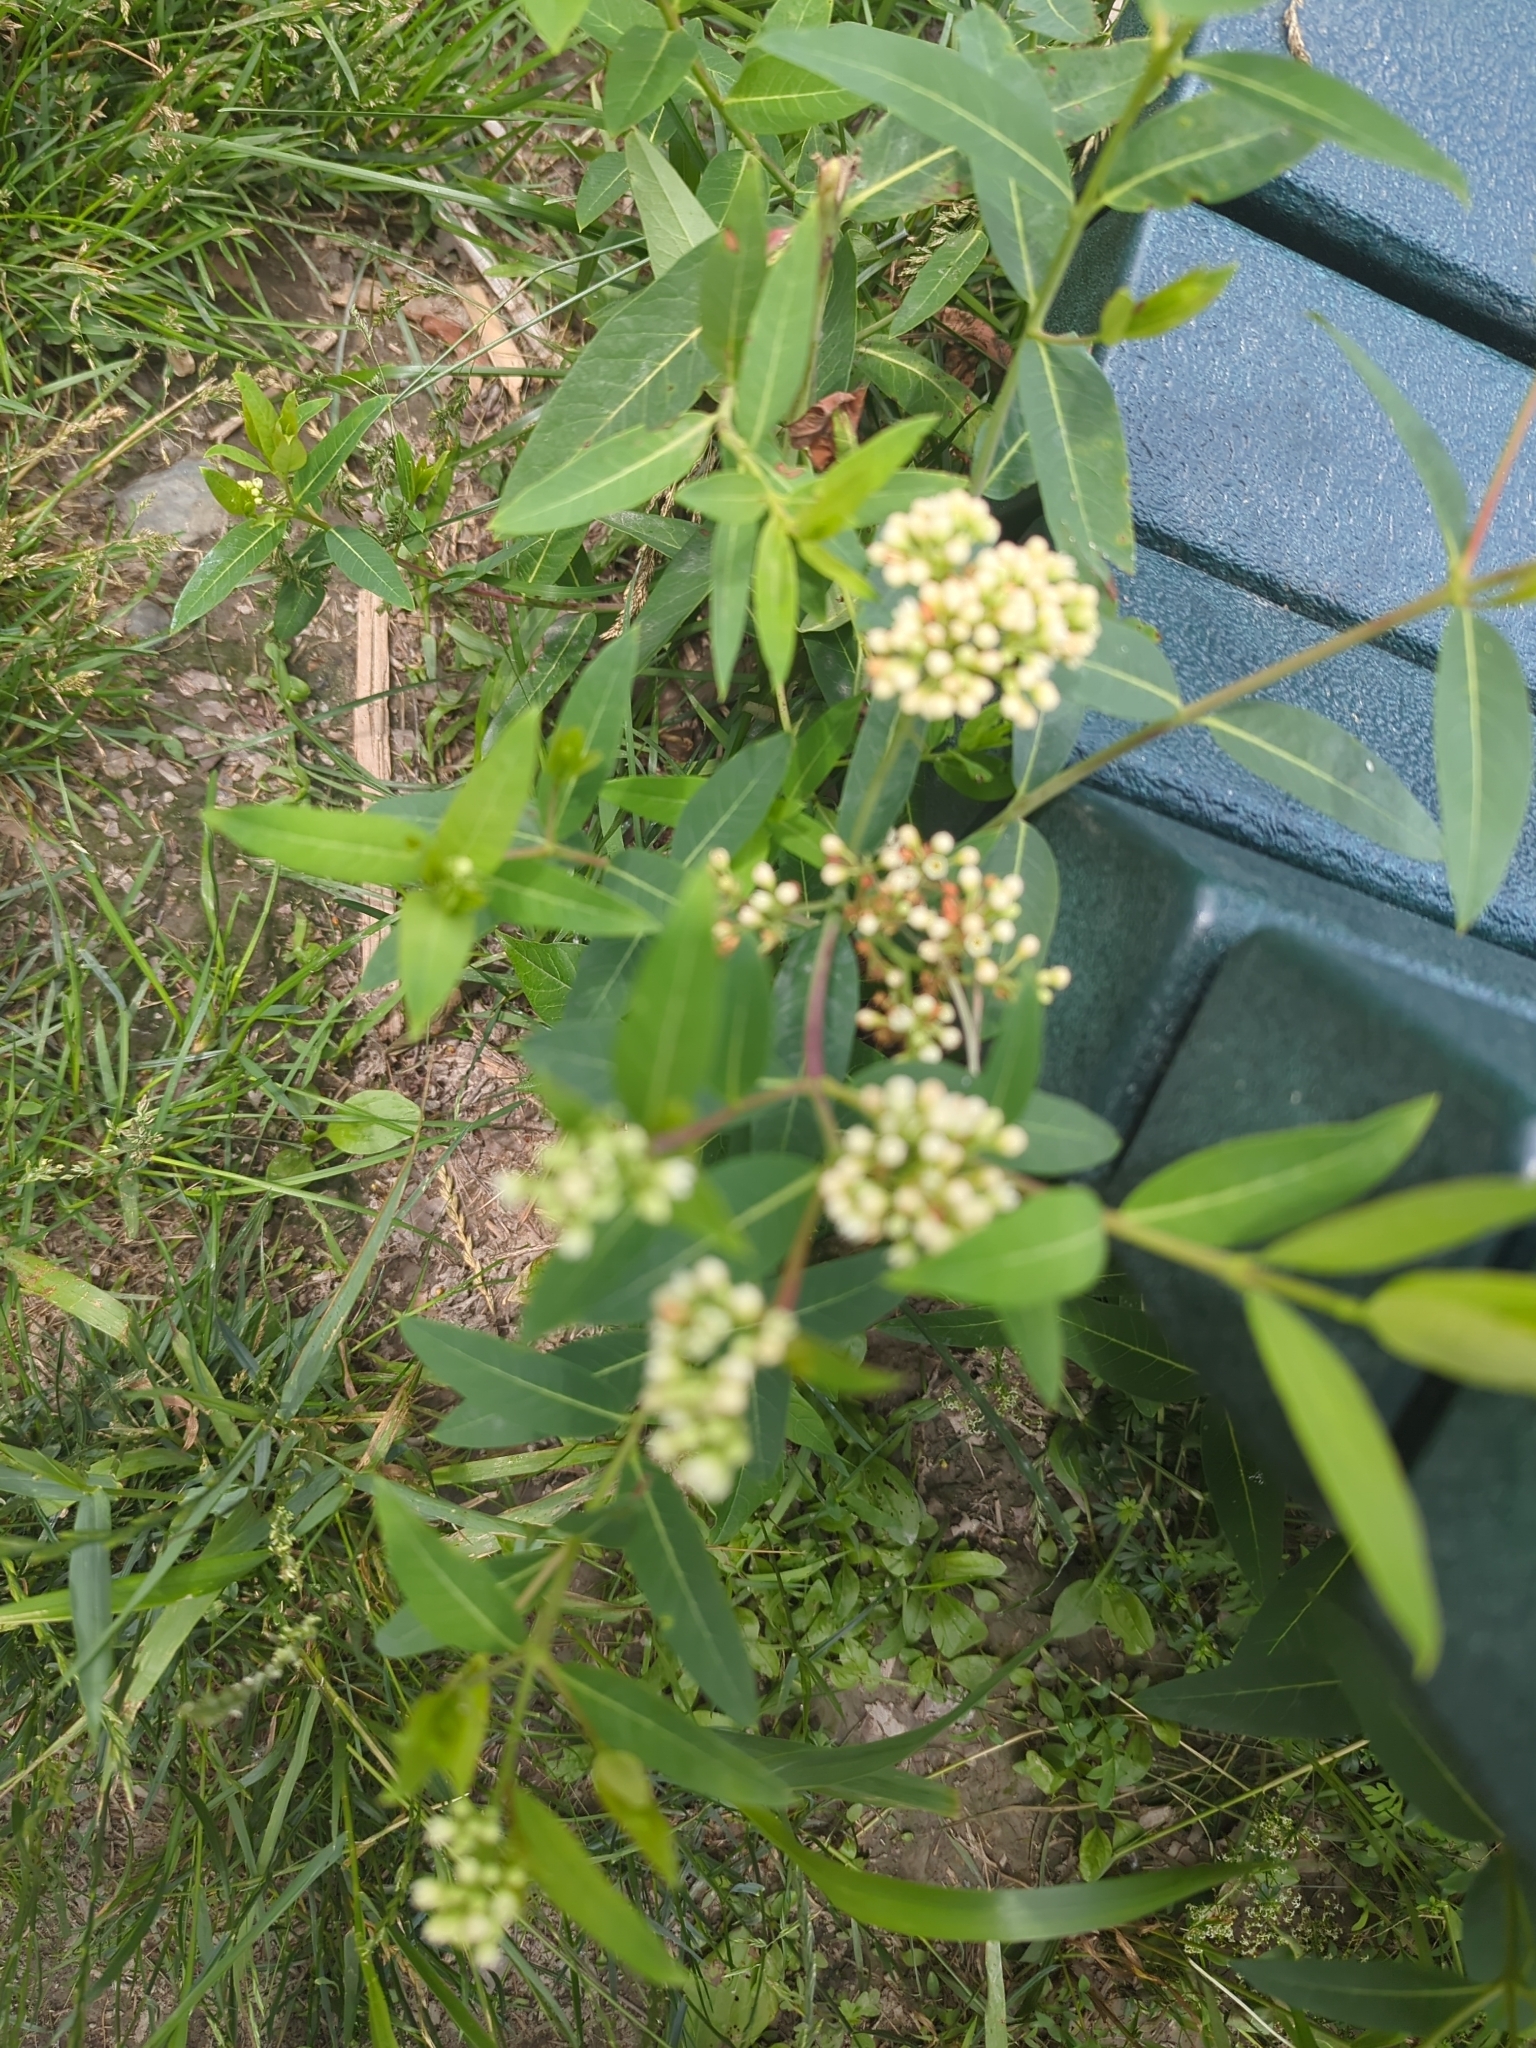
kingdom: Plantae
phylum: Tracheophyta
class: Magnoliopsida
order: Gentianales
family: Apocynaceae
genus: Apocynum
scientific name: Apocynum cannabinum
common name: Hemp dogbane
